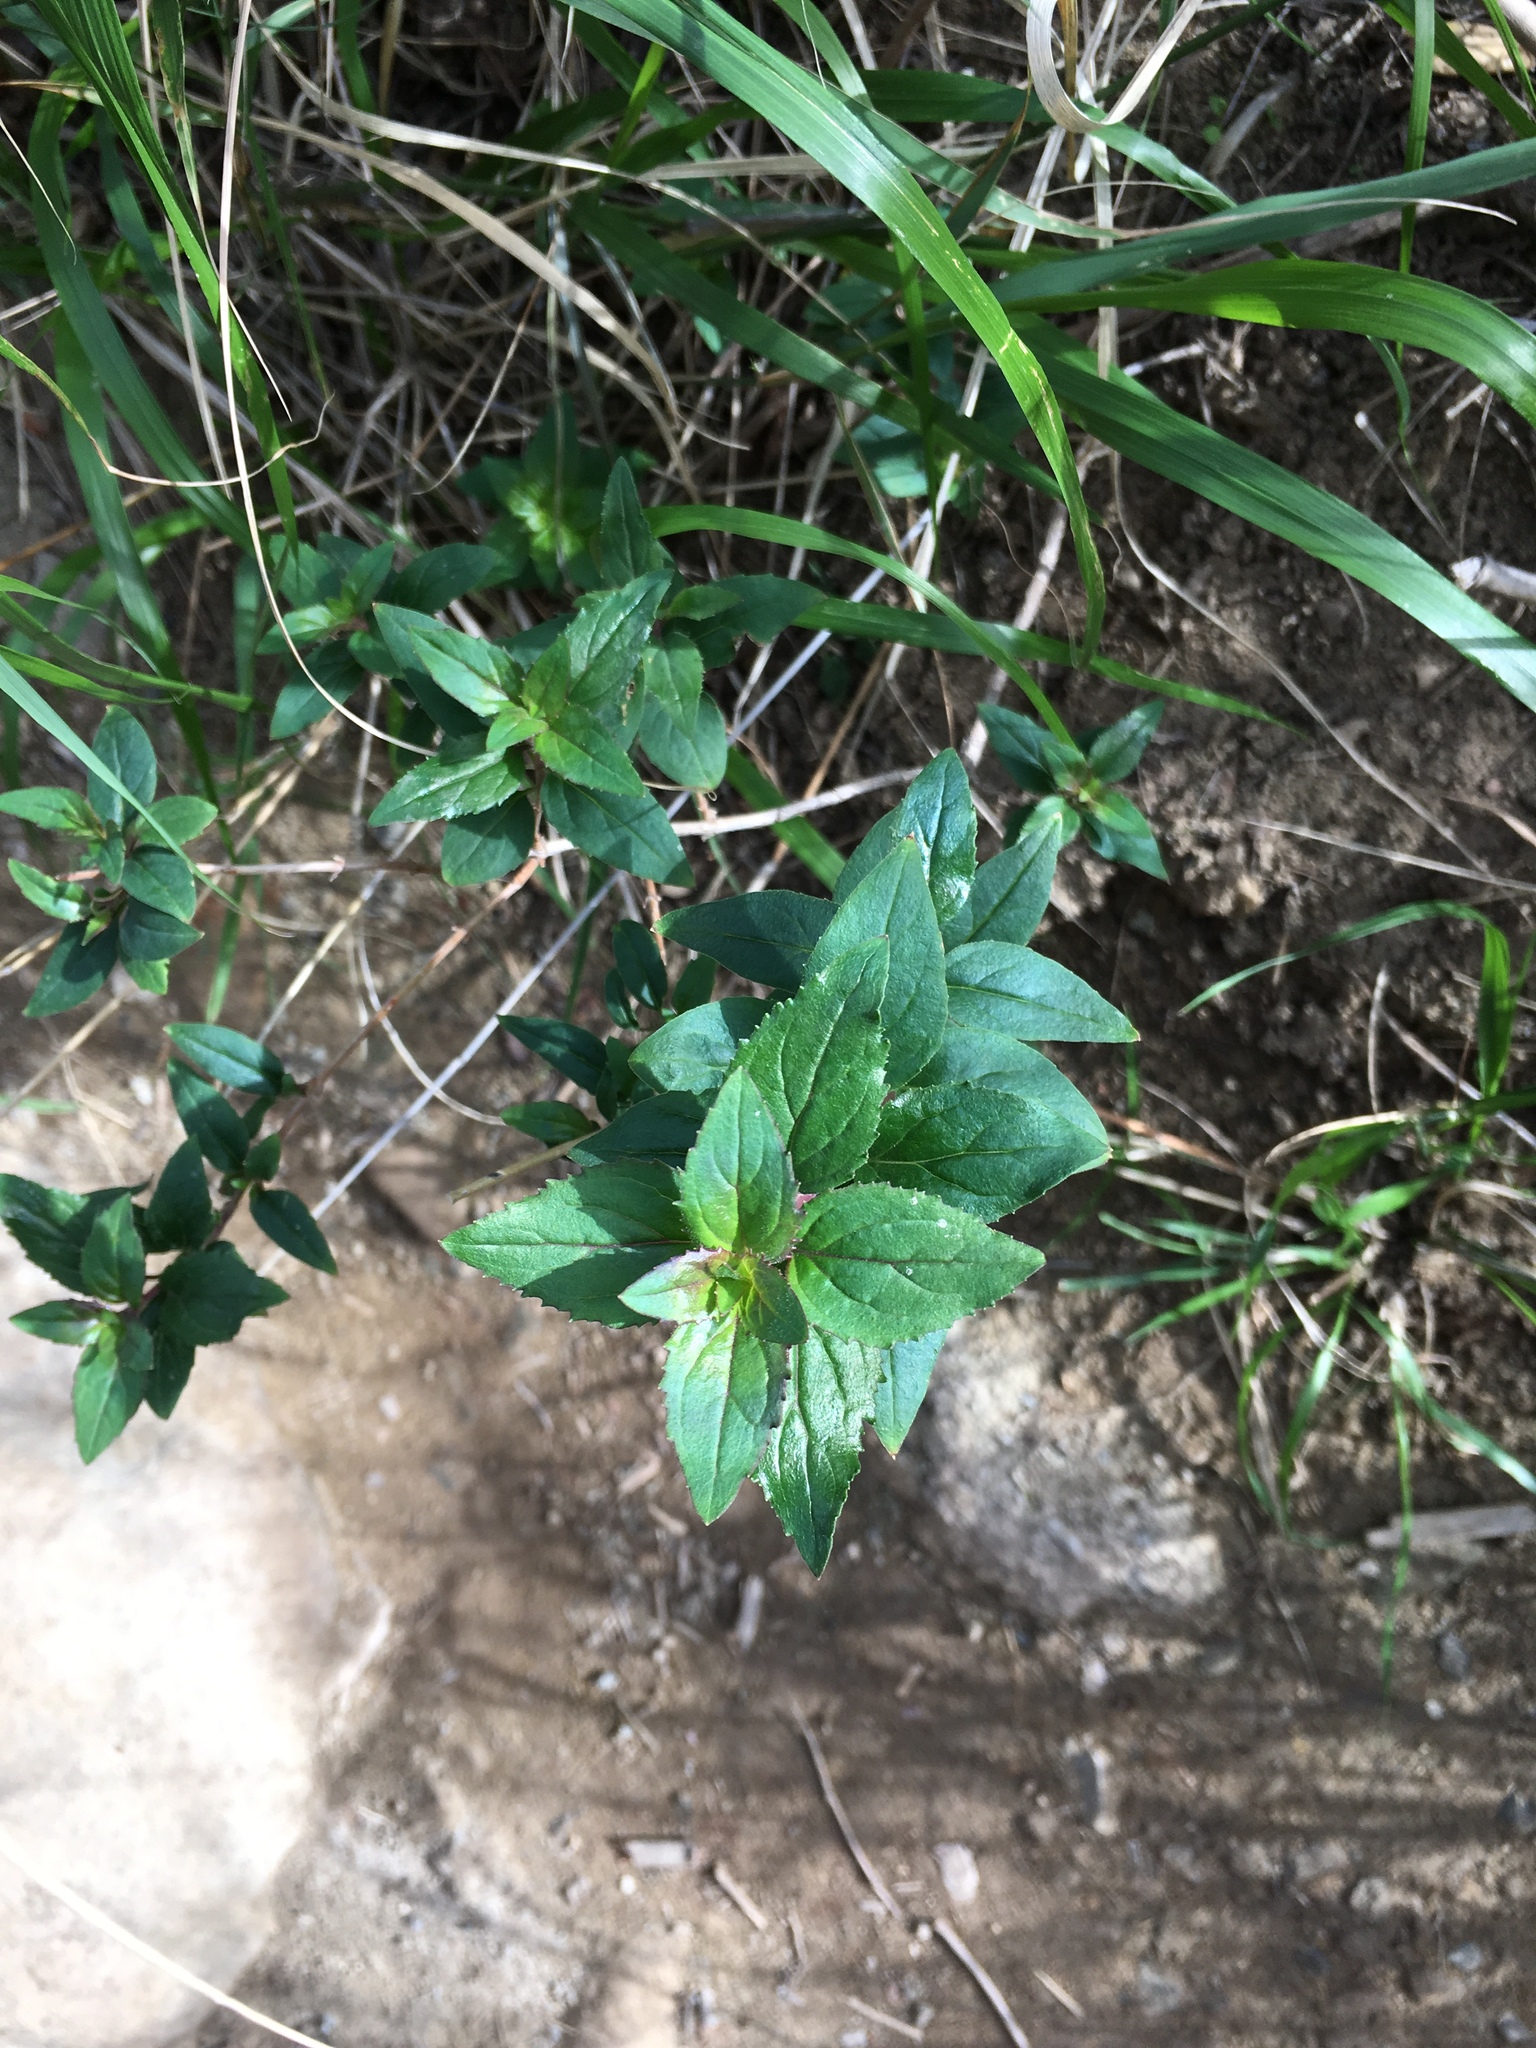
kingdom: Plantae
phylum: Tracheophyta
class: Magnoliopsida
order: Lamiales
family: Plantaginaceae
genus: Keckiella
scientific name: Keckiella cordifolia
